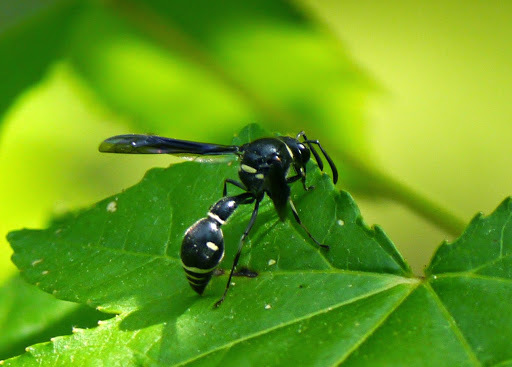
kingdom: Animalia
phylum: Arthropoda
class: Insecta
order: Hymenoptera
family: Vespidae
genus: Eumenes
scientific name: Eumenes fraternus
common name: Fraternal potter wasp
